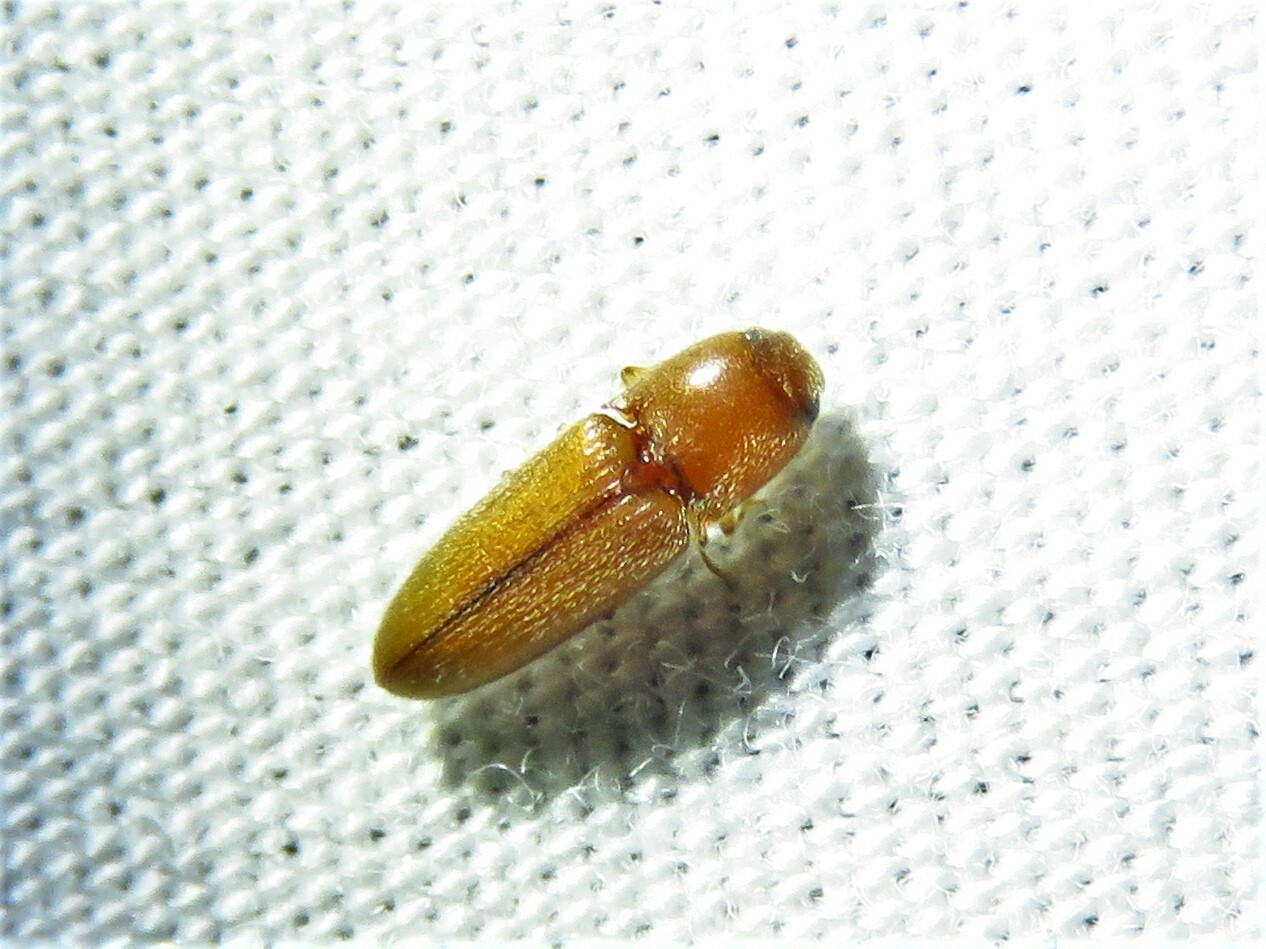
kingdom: Animalia
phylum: Arthropoda
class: Insecta
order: Coleoptera
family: Elateridae
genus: Glyphonyx
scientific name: Glyphonyx
